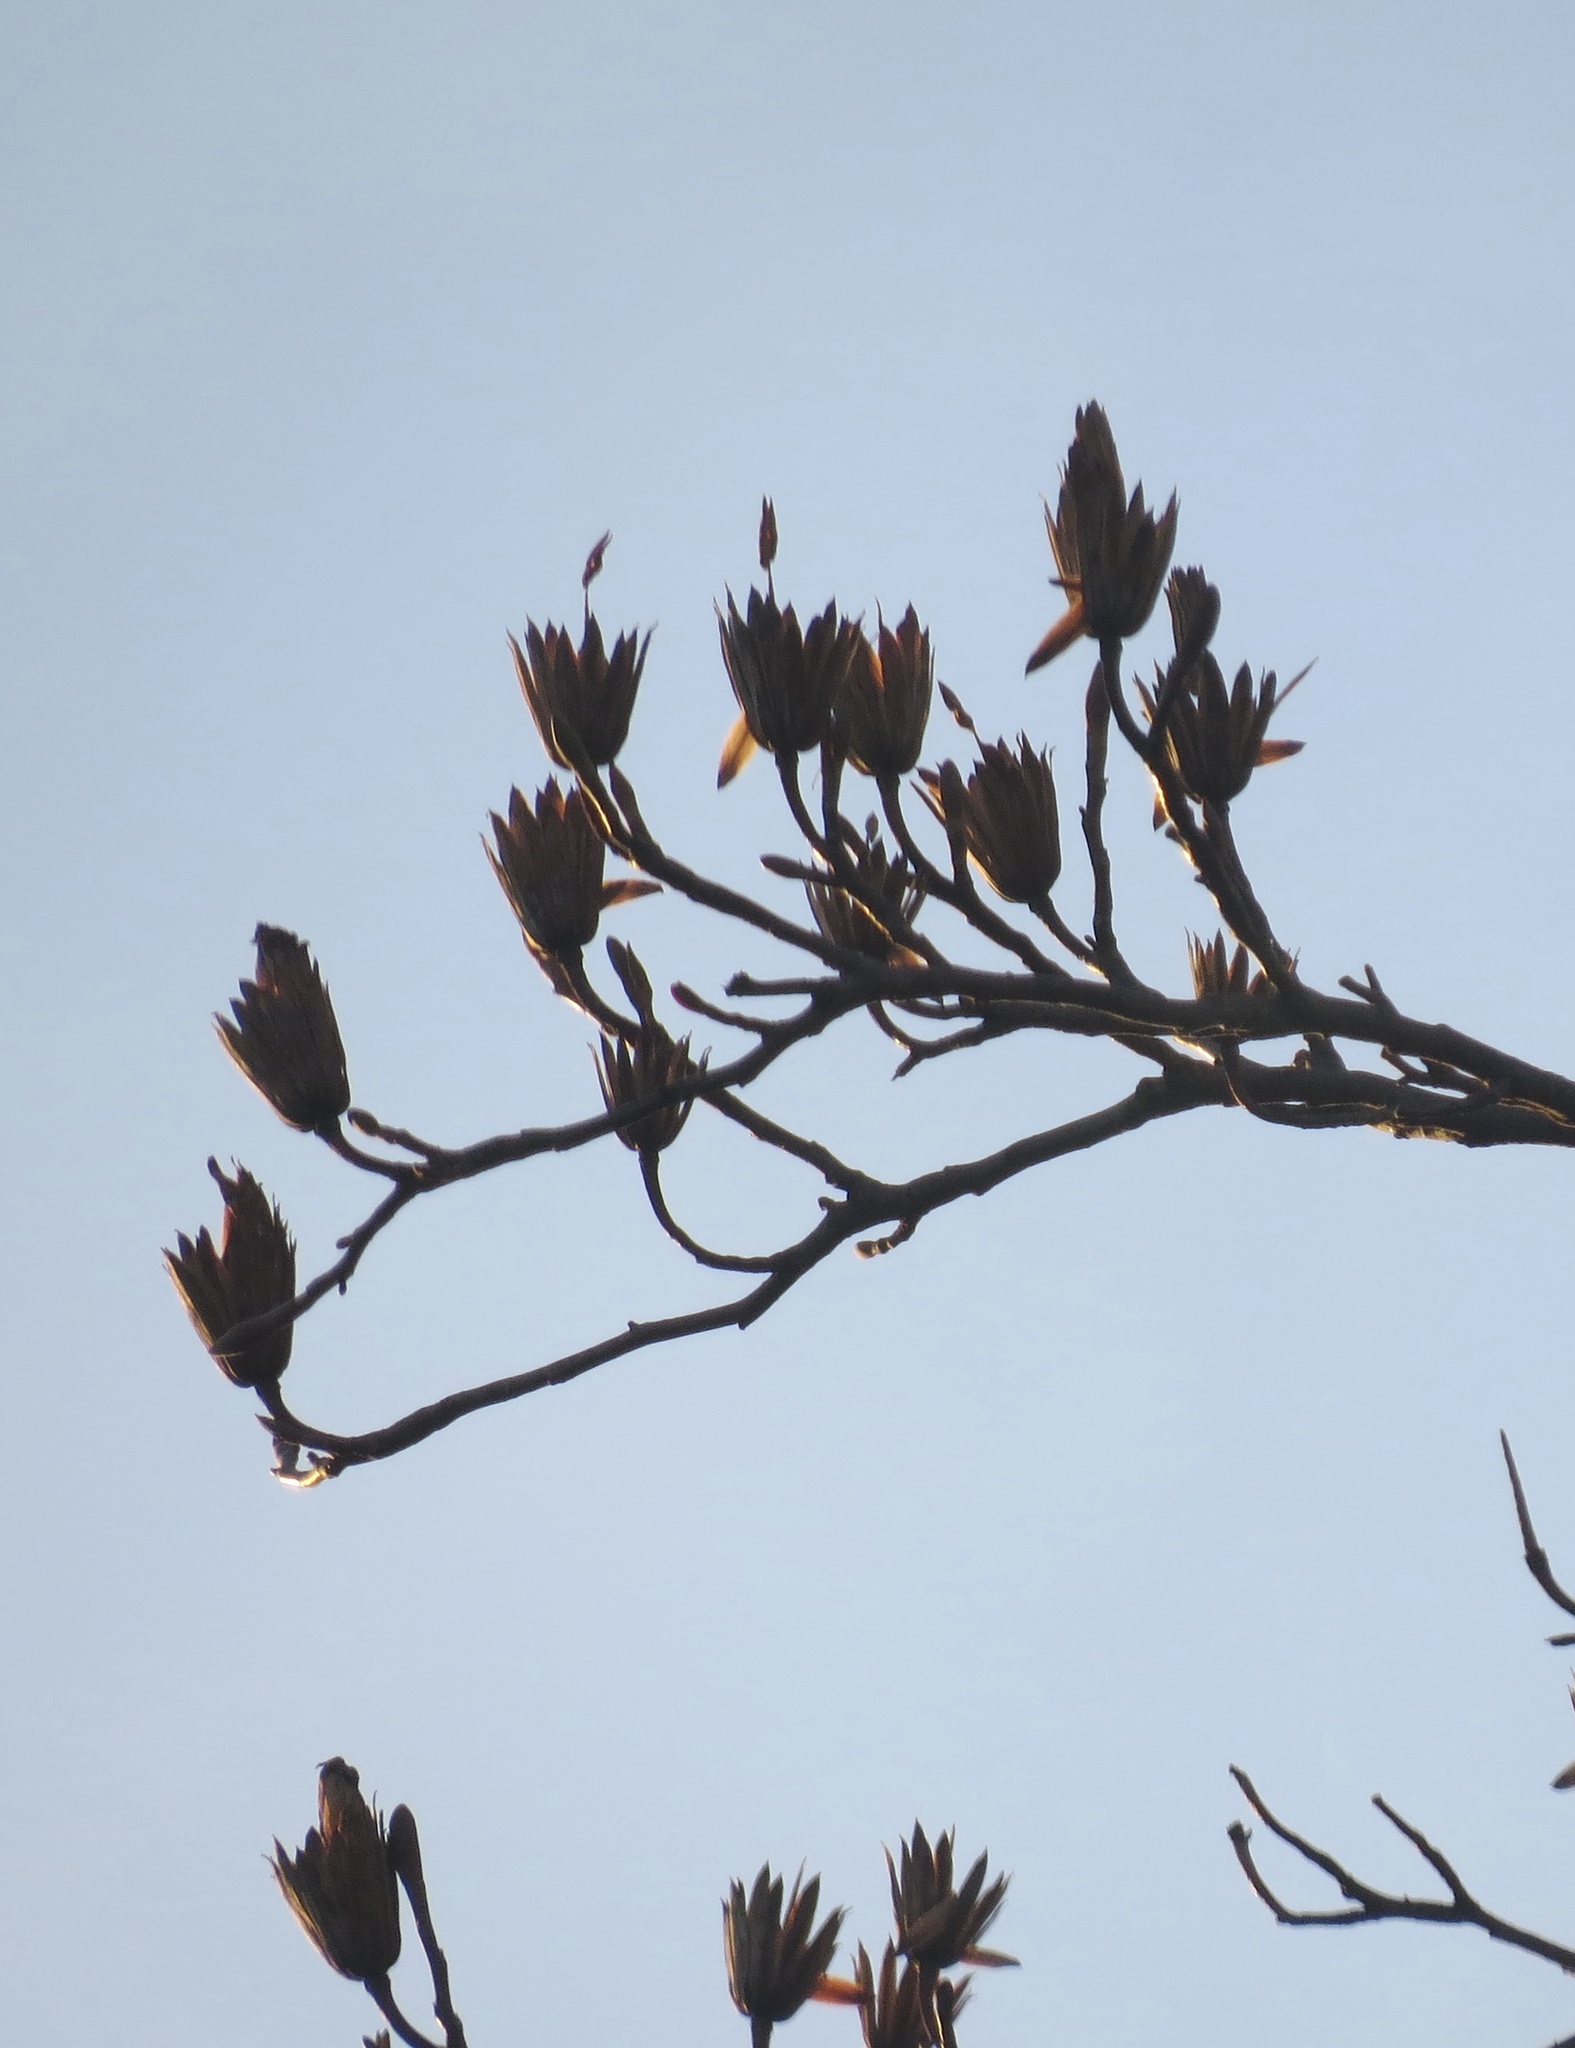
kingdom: Plantae
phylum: Tracheophyta
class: Magnoliopsida
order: Magnoliales
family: Magnoliaceae
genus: Liriodendron
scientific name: Liriodendron tulipifera
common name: Tulip tree
